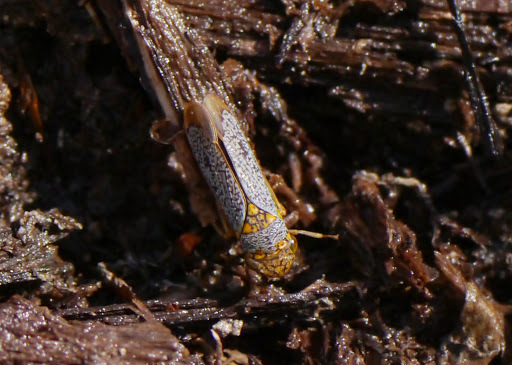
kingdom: Animalia
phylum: Arthropoda
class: Insecta
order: Hemiptera
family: Cicadellidae
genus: Oncometopia
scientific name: Oncometopia orbona
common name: Broad-headed sharpshooter
